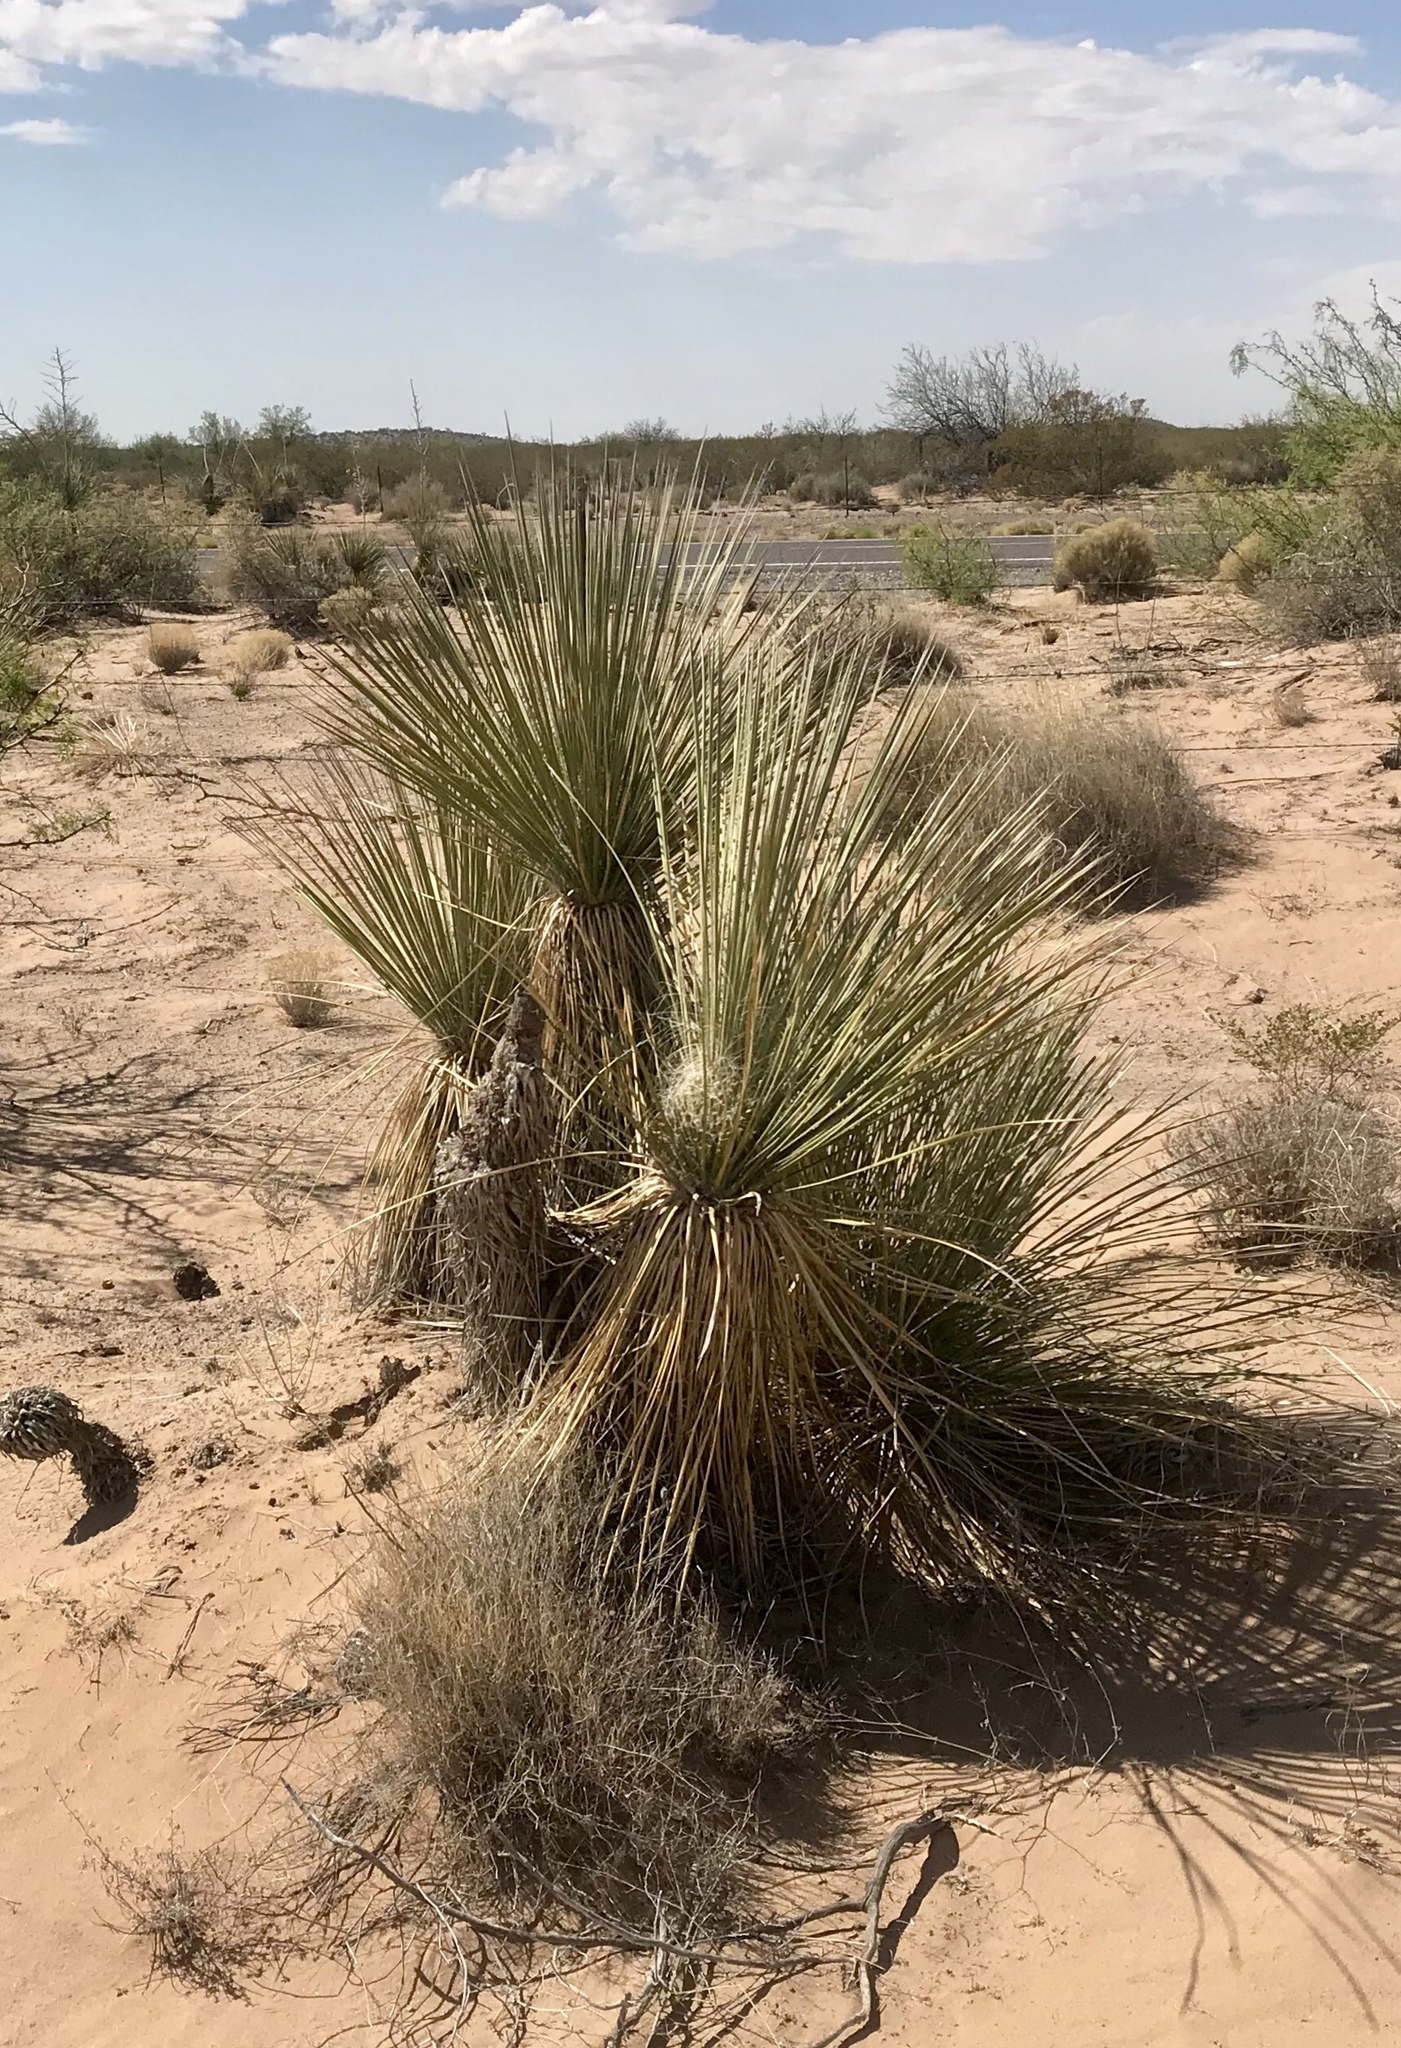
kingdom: Plantae
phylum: Tracheophyta
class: Liliopsida
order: Asparagales
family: Asparagaceae
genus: Yucca
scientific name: Yucca elata
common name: Palmella
